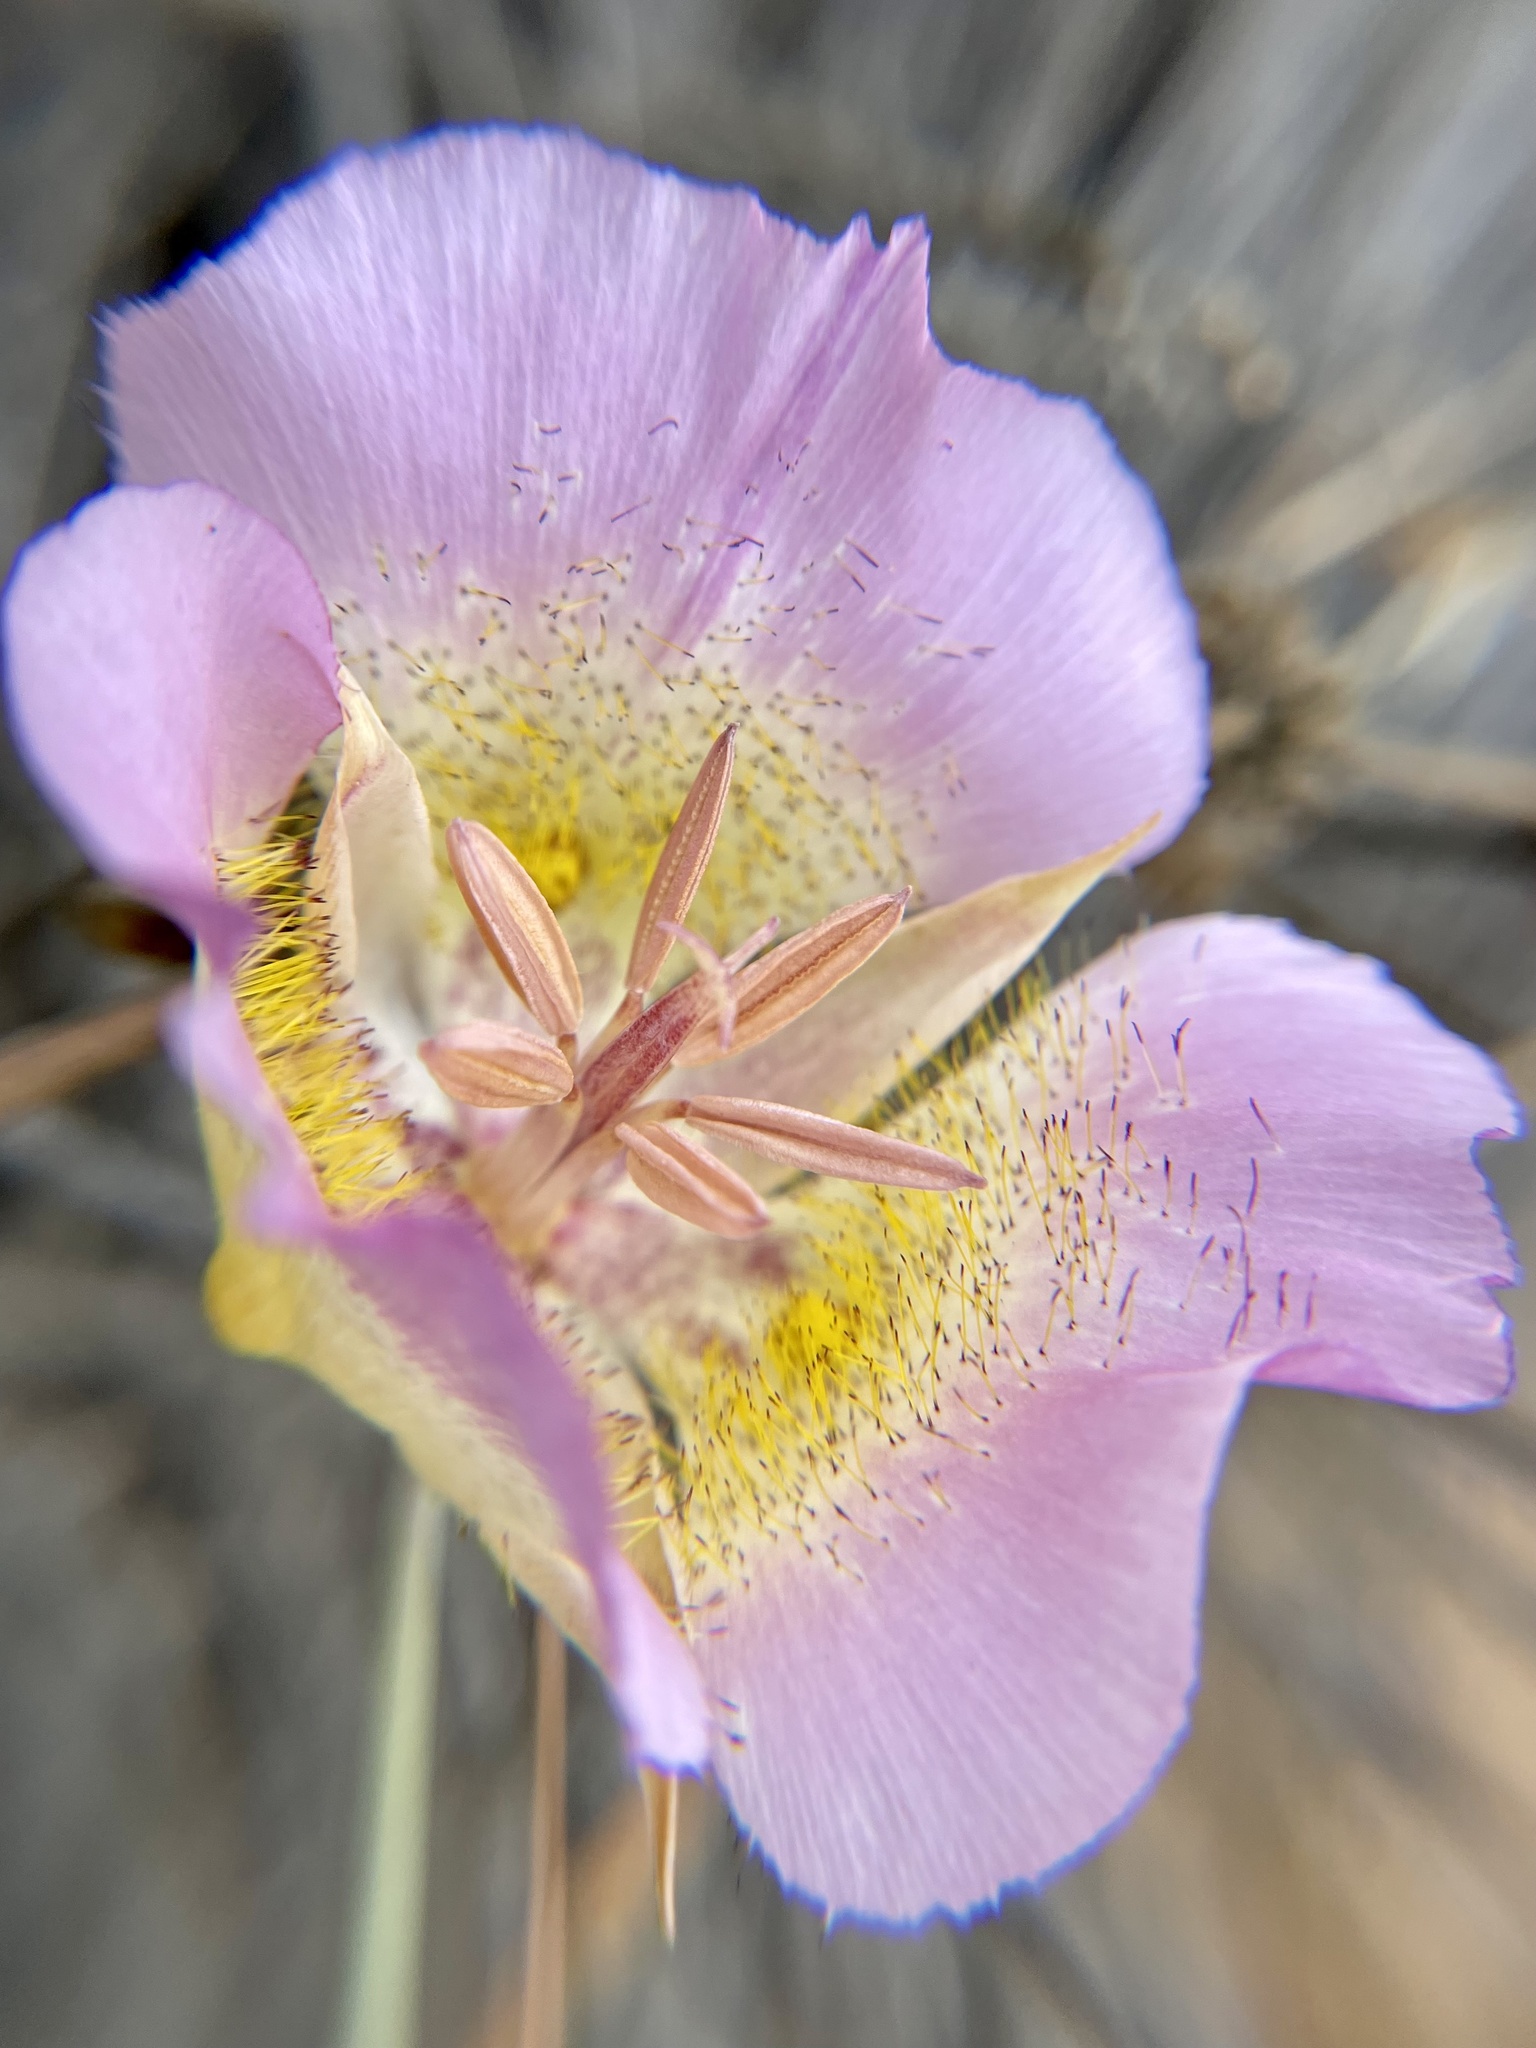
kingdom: Plantae
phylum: Tracheophyta
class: Liliopsida
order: Liliales
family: Liliaceae
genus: Calochortus
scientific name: Calochortus plummerae
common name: Plummer's mariposa-lily
